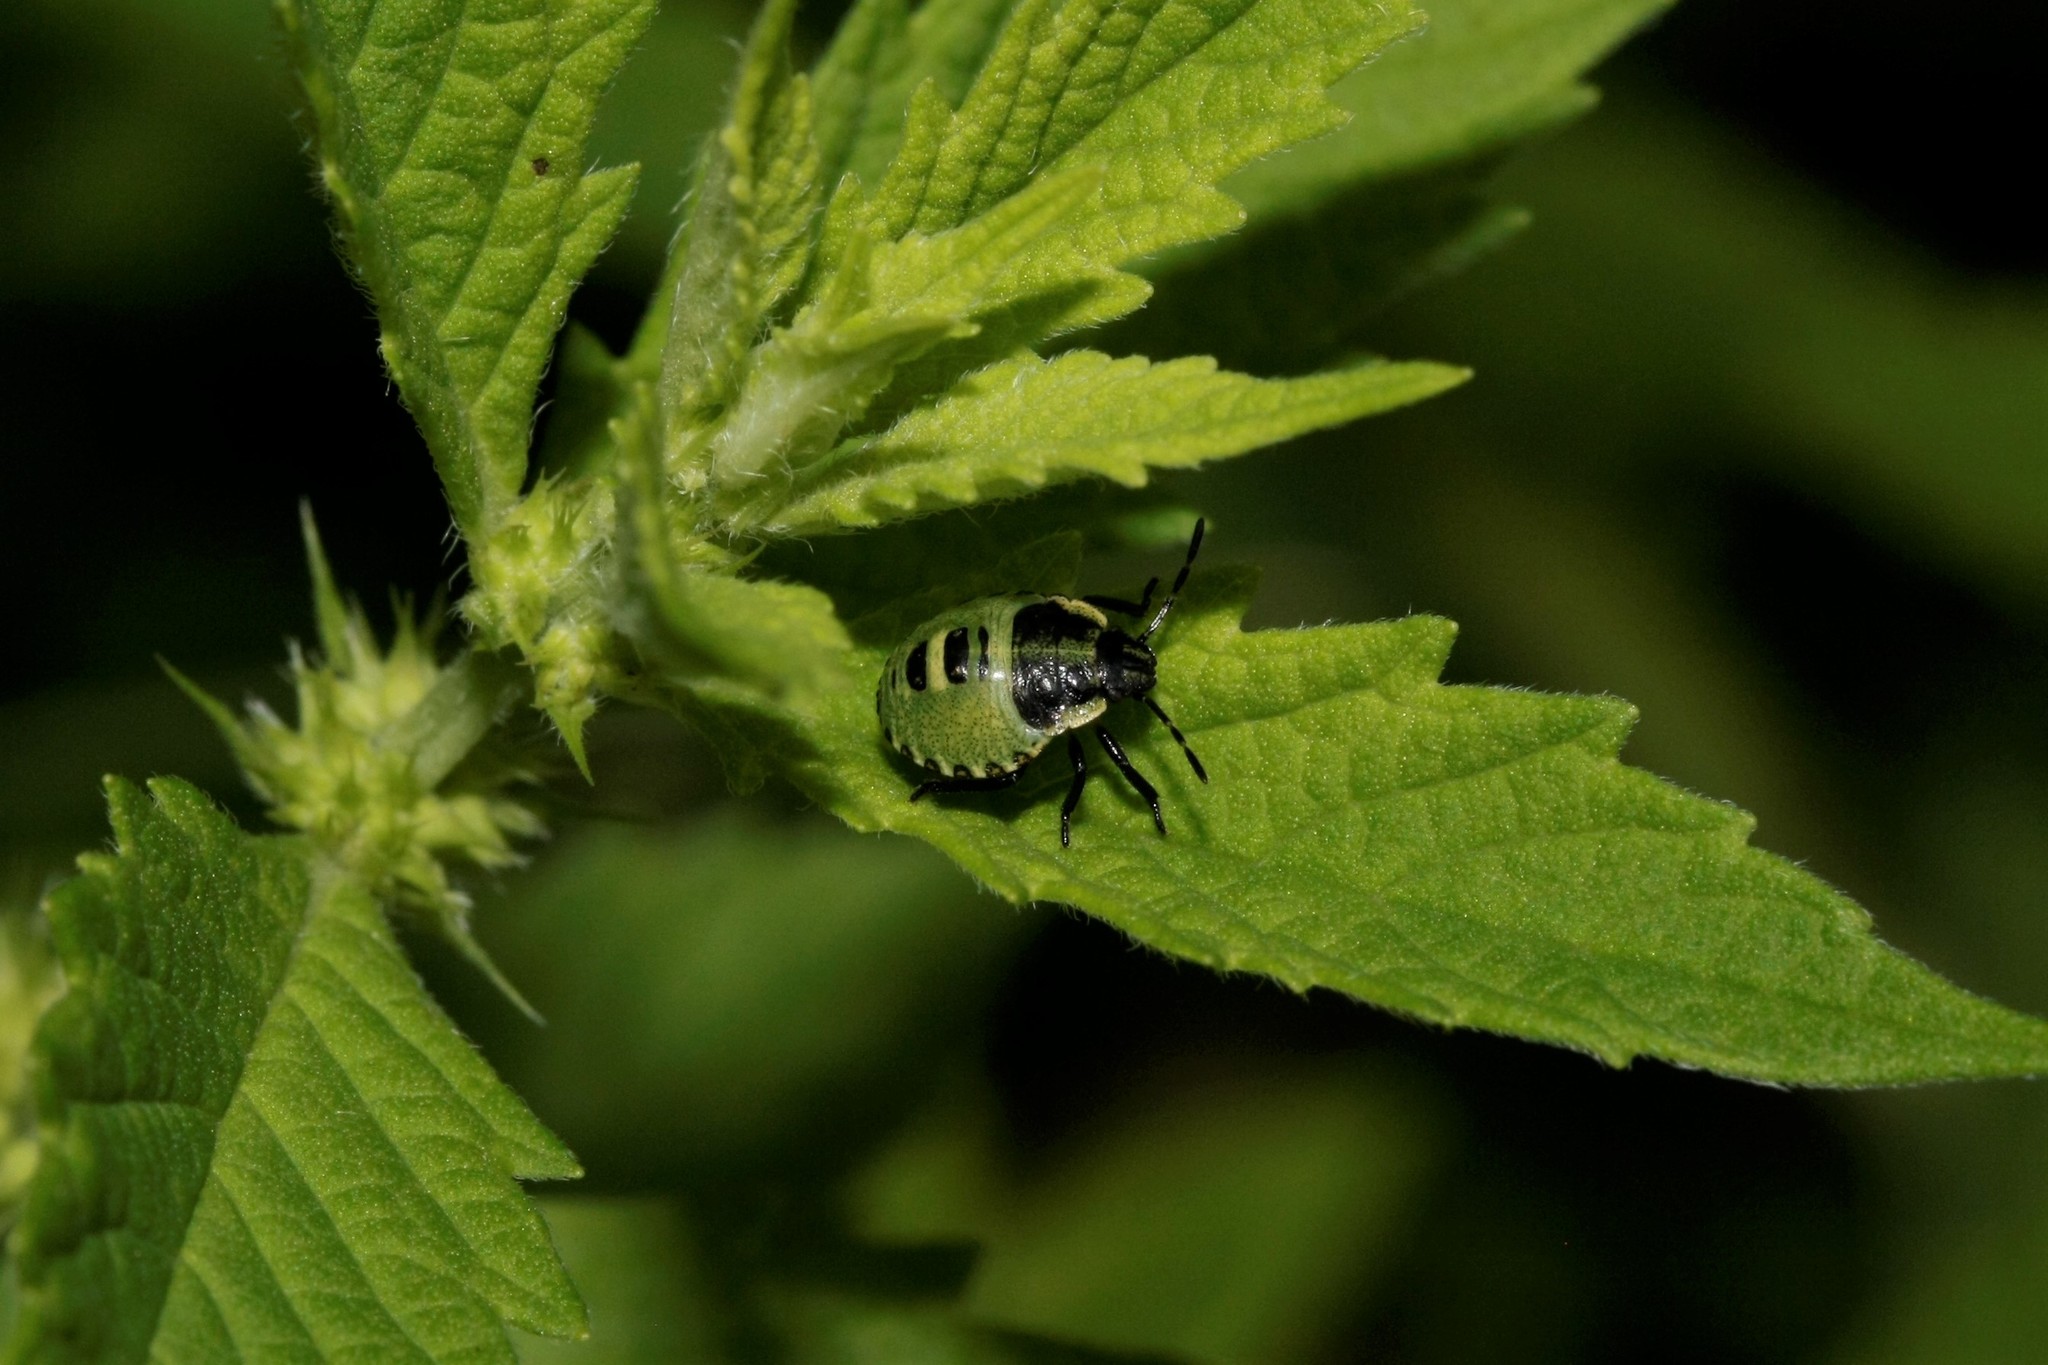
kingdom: Animalia
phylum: Arthropoda
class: Insecta
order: Hemiptera
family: Pentatomidae
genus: Palomena
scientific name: Palomena prasina
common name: Green shieldbug
